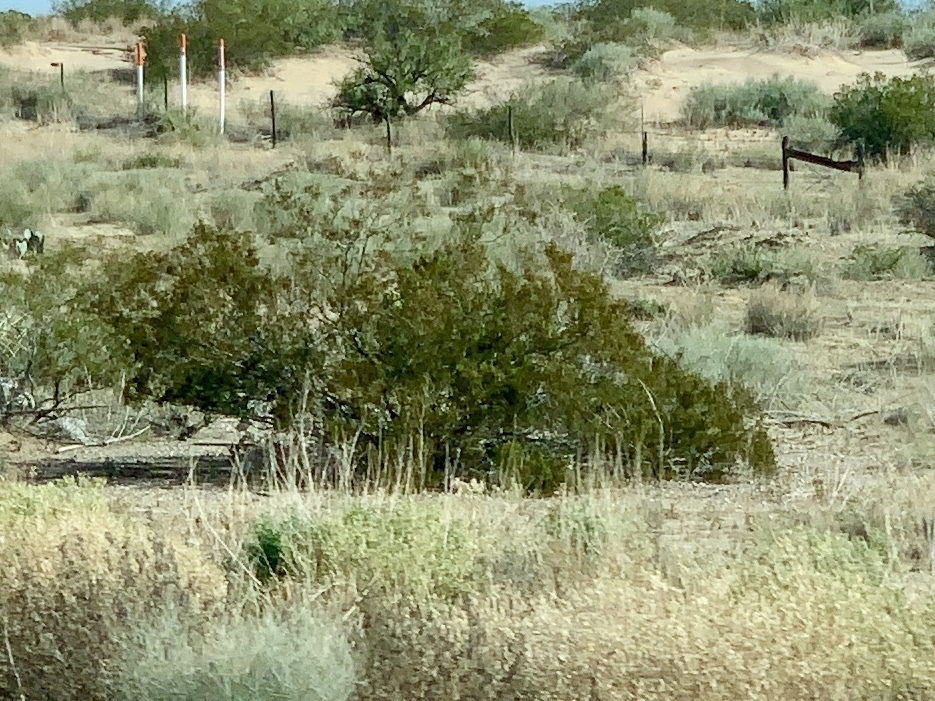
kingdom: Plantae
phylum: Tracheophyta
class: Magnoliopsida
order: Zygophyllales
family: Zygophyllaceae
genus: Larrea
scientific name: Larrea tridentata
